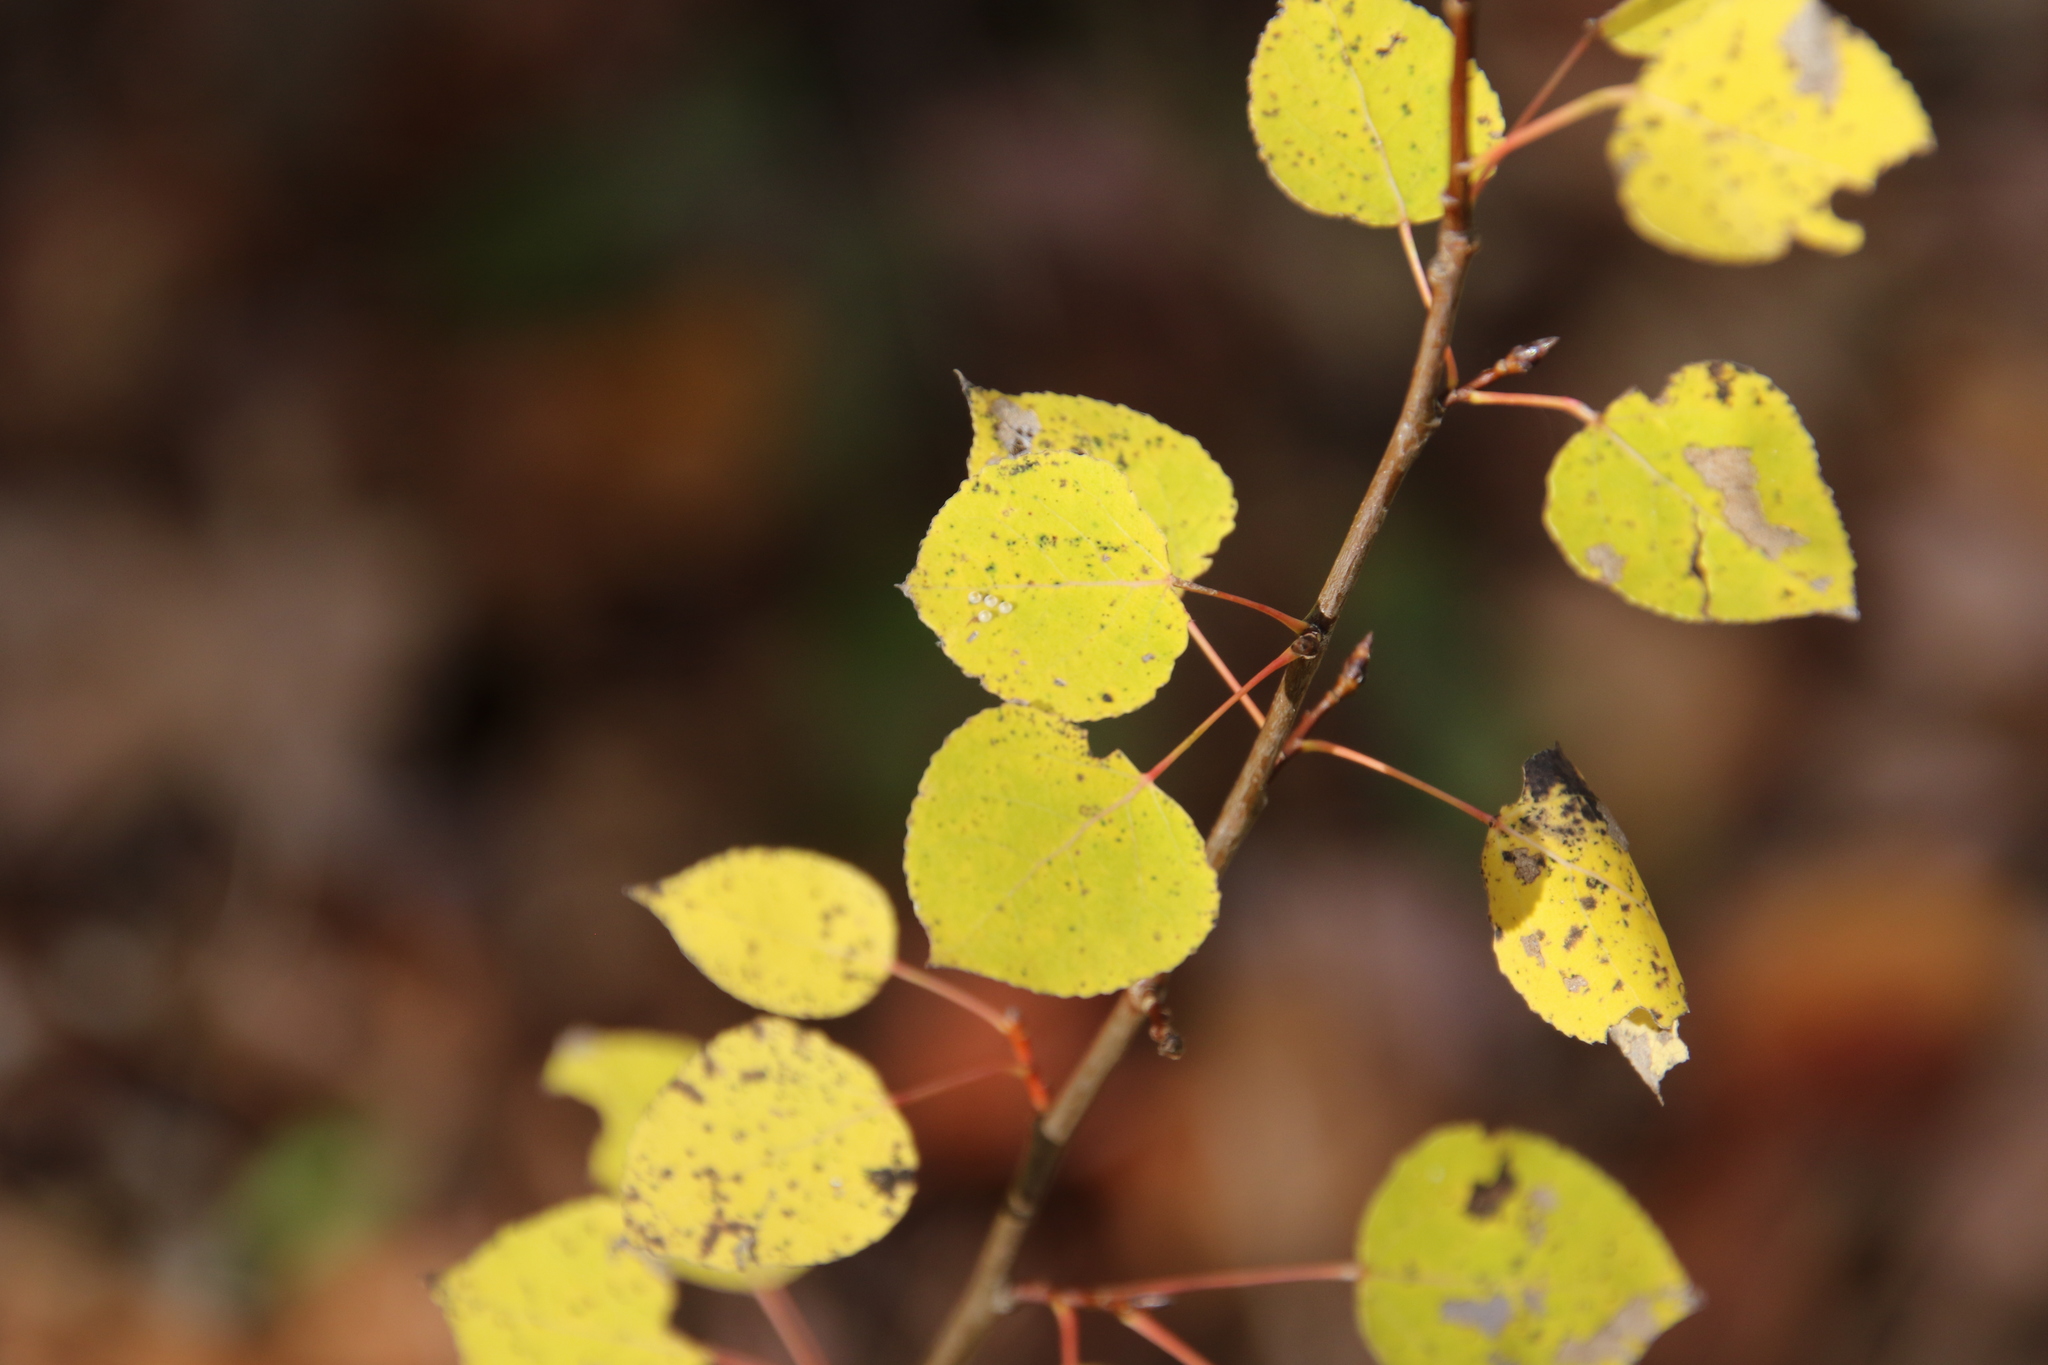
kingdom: Plantae
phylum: Tracheophyta
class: Magnoliopsida
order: Malpighiales
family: Salicaceae
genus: Populus
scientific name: Populus tremuloides
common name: Quaking aspen
